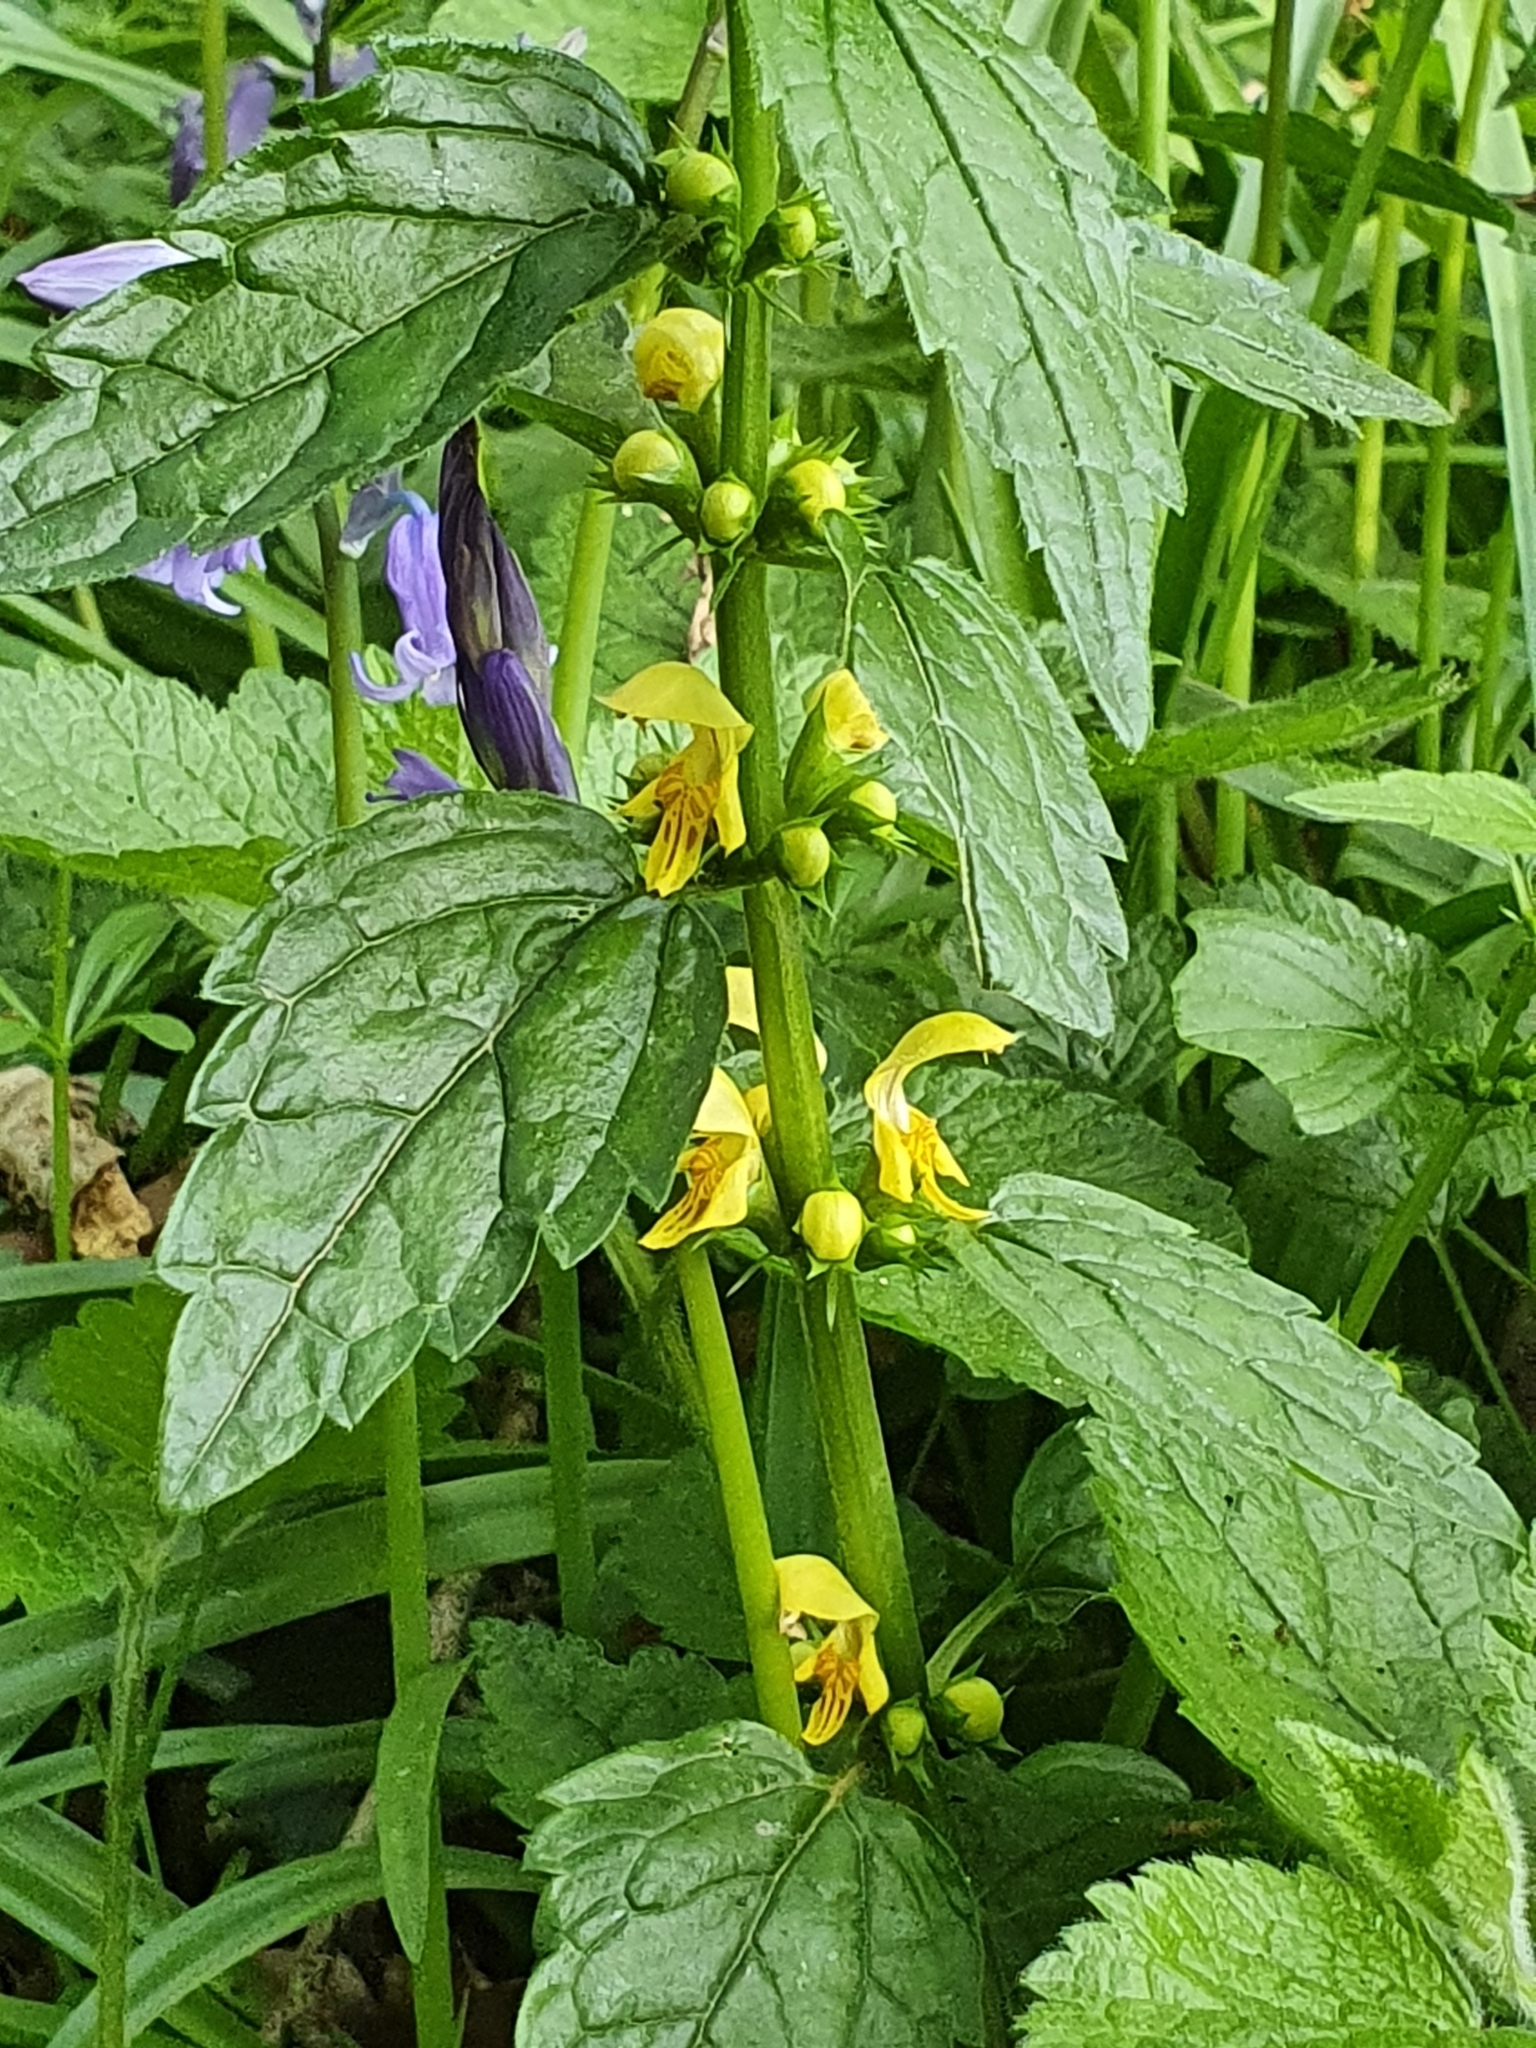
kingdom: Plantae
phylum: Tracheophyta
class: Magnoliopsida
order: Lamiales
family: Lamiaceae
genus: Lamium
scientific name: Lamium galeobdolon
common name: Yellow archangel
